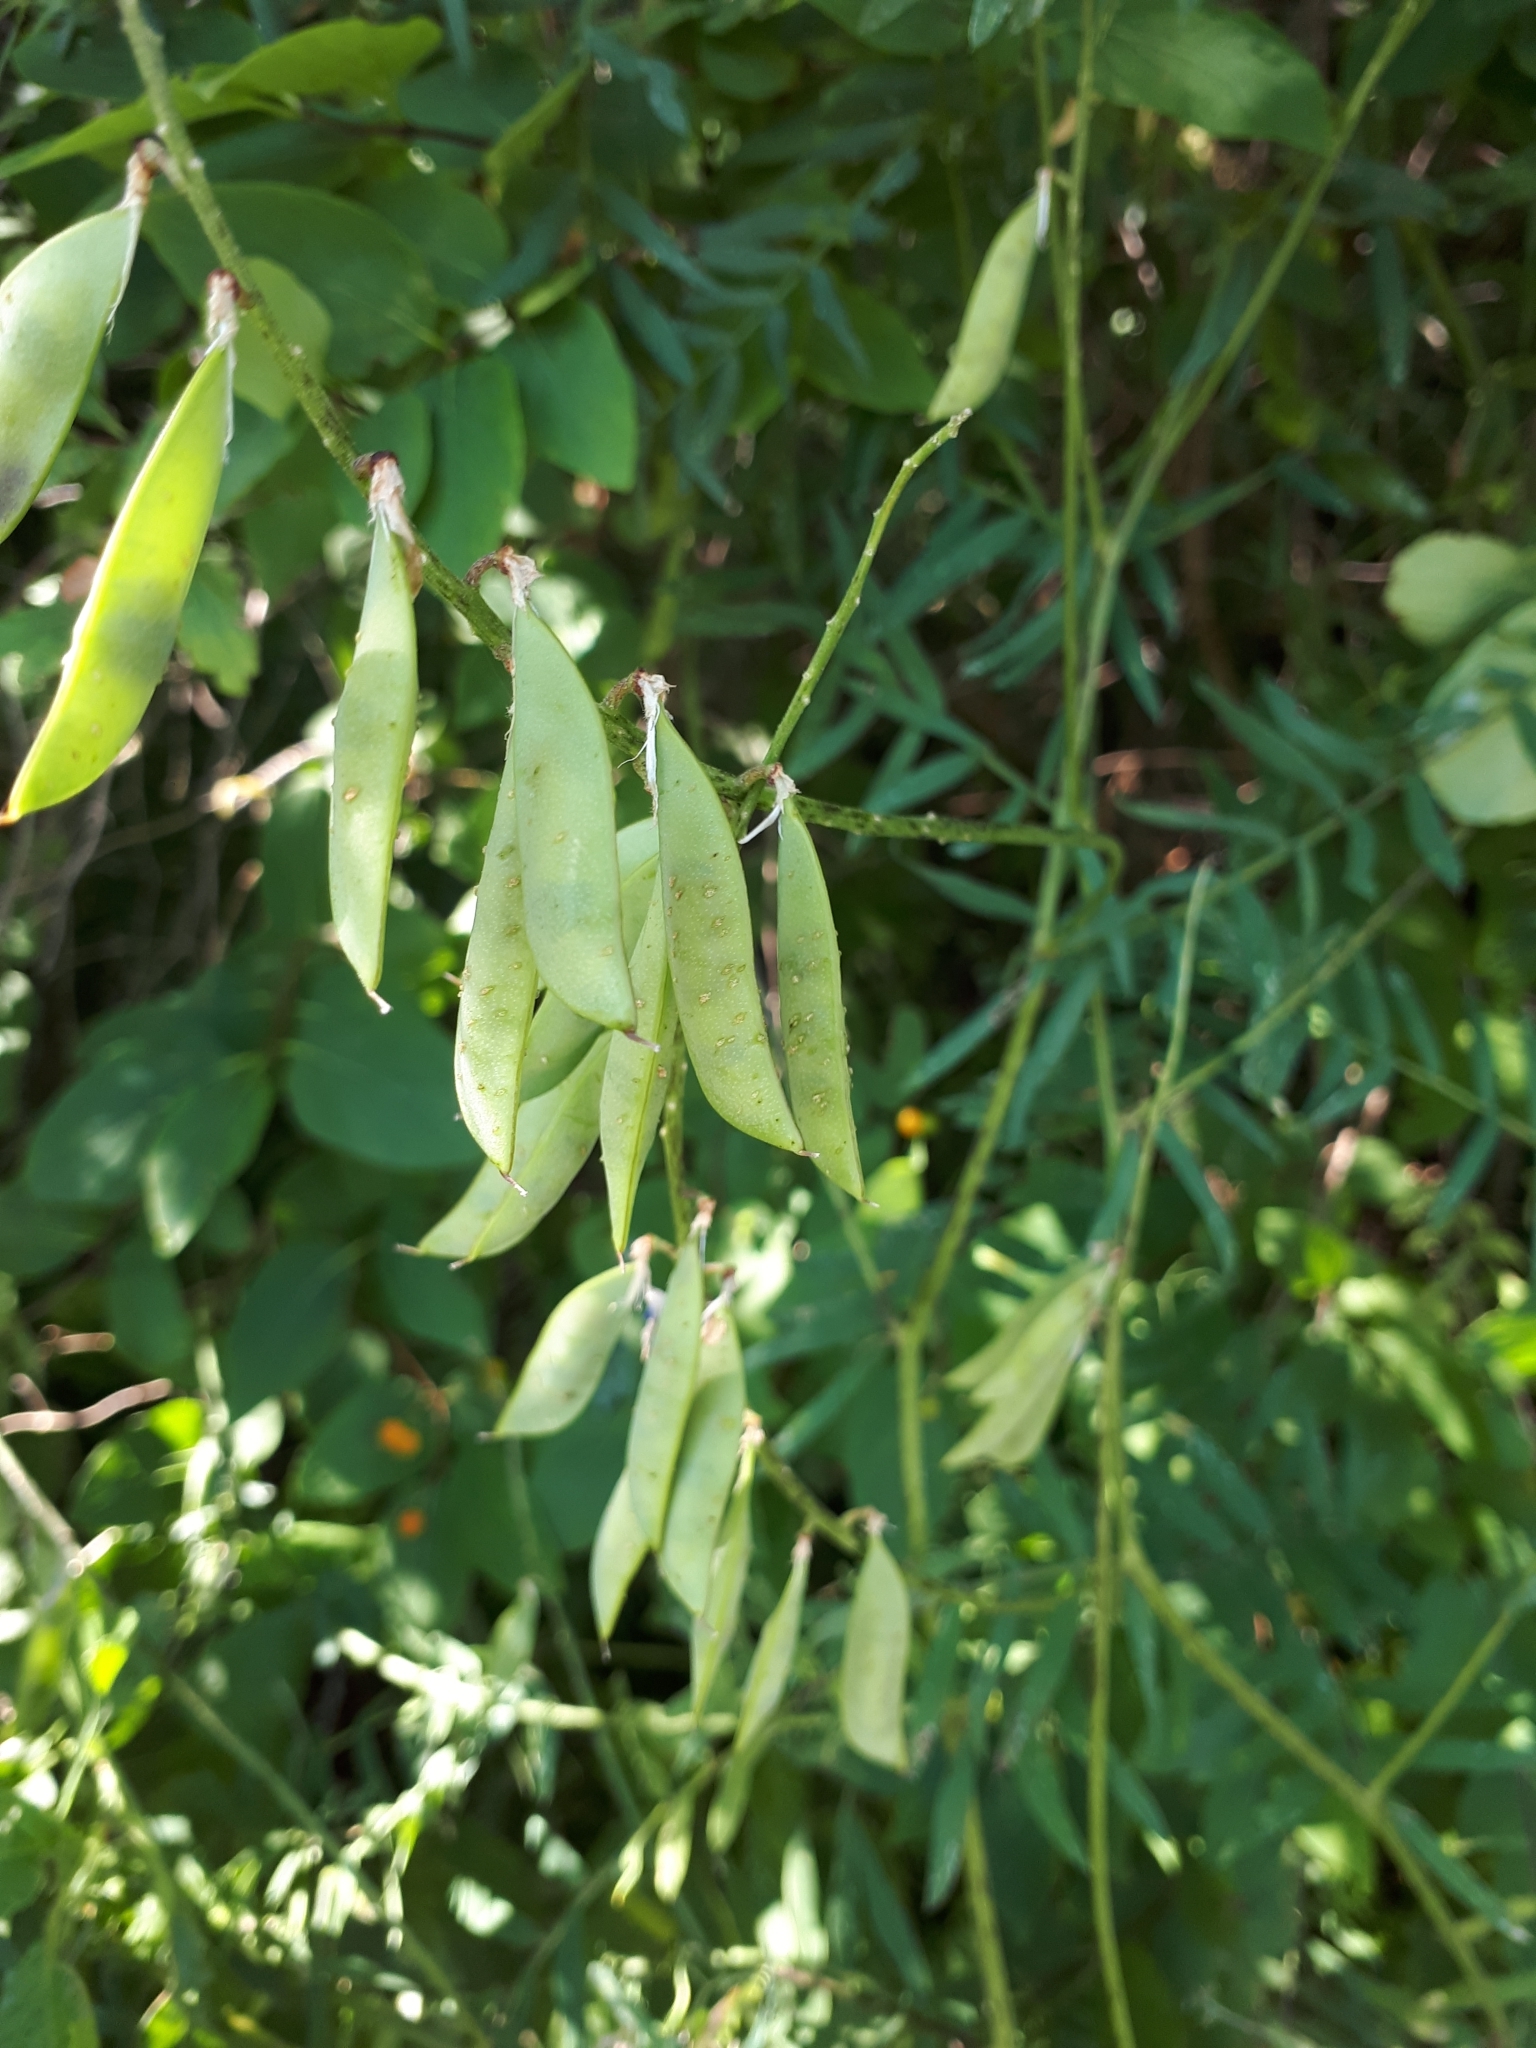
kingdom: Plantae
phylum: Tracheophyta
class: Magnoliopsida
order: Fabales
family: Fabaceae
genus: Vicia
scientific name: Vicia tenuifolia
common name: Fine-leaved vetch
